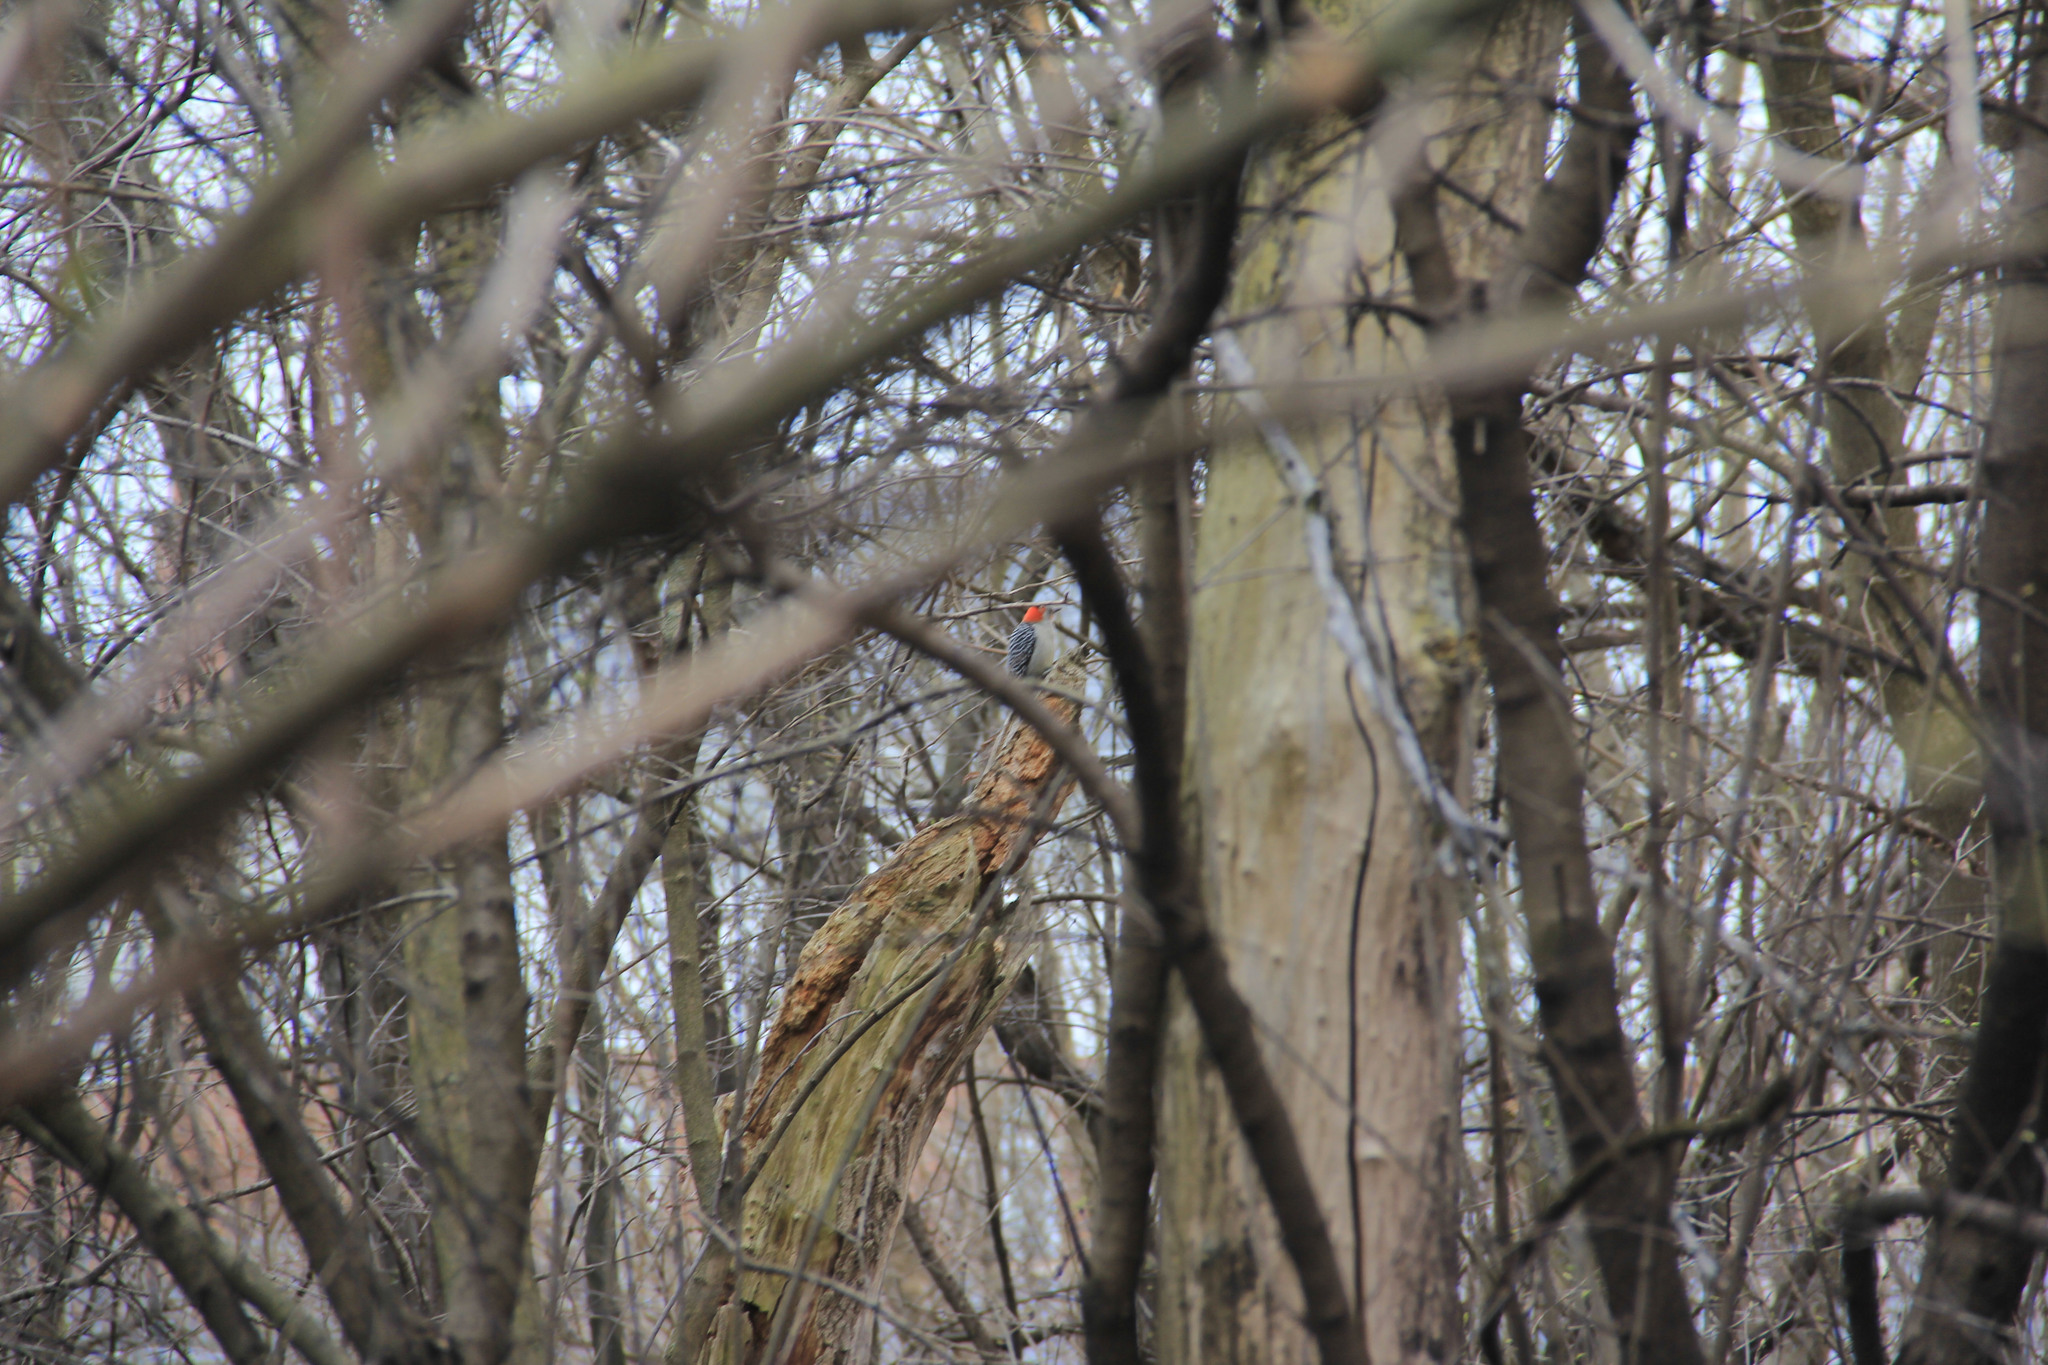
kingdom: Animalia
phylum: Chordata
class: Aves
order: Piciformes
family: Picidae
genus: Melanerpes
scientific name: Melanerpes carolinus
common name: Red-bellied woodpecker
